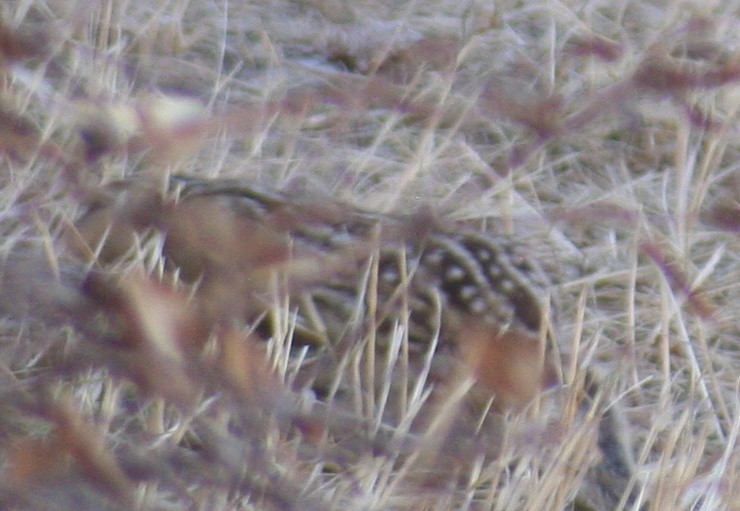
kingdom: Animalia
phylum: Chordata
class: Mammalia
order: Rodentia
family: Sciuridae
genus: Ictidomys
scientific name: Ictidomys tridecemlineatus
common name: Thirteen-lined ground squirrel
